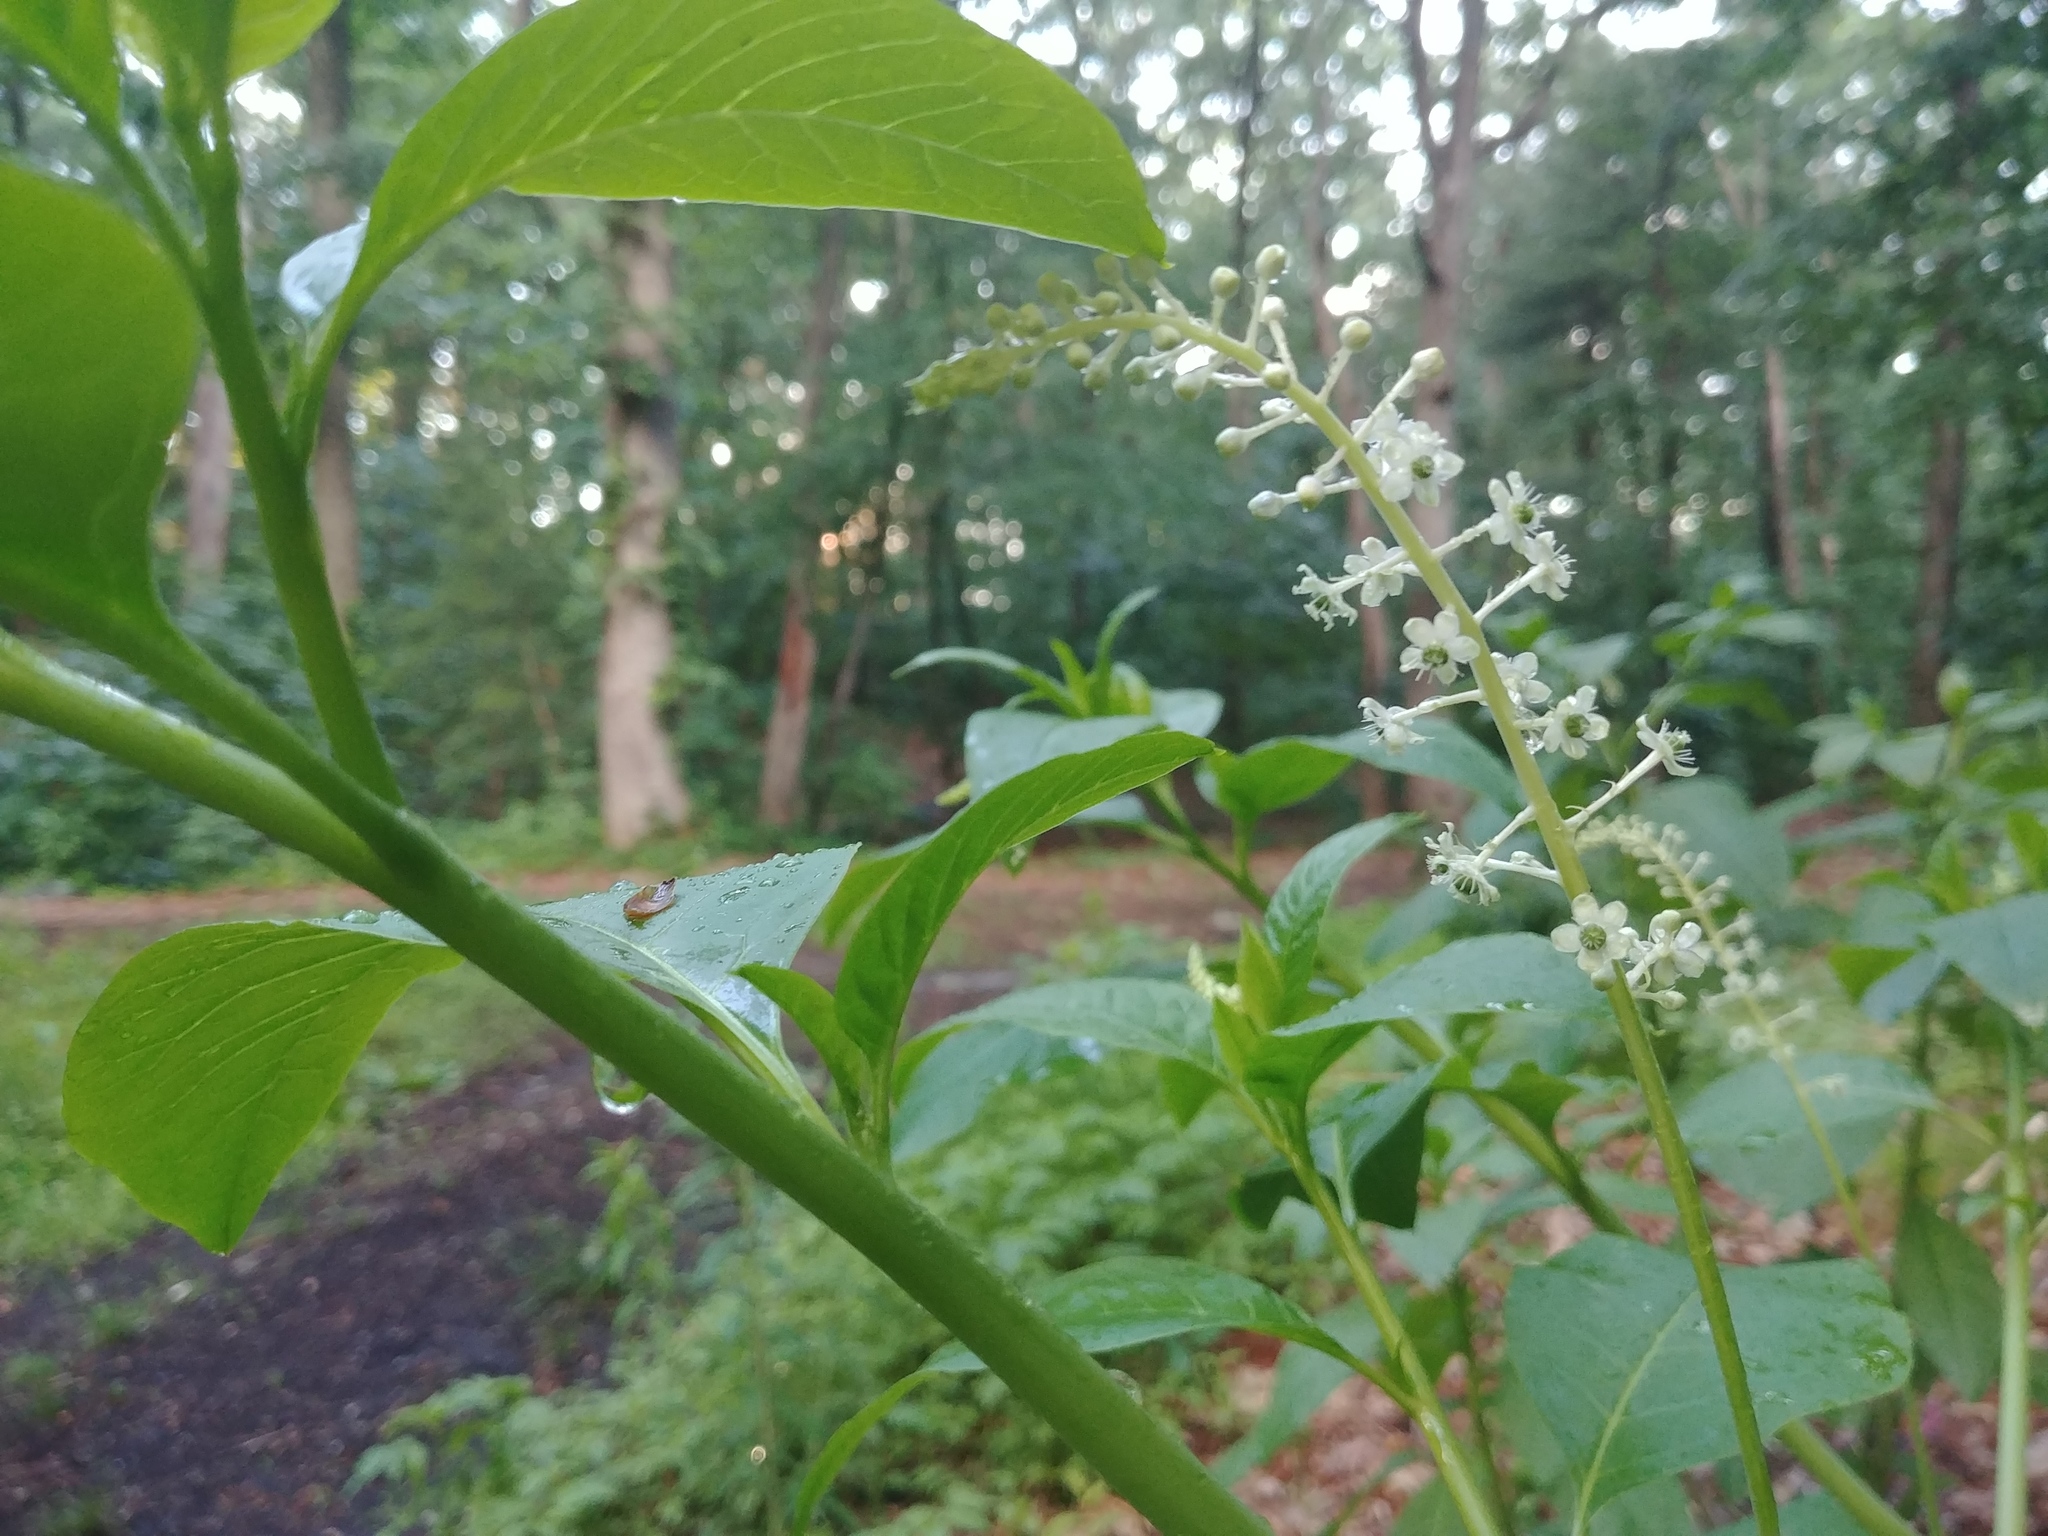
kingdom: Plantae
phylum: Tracheophyta
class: Magnoliopsida
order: Caryophyllales
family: Phytolaccaceae
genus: Phytolacca
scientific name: Phytolacca americana
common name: American pokeweed
